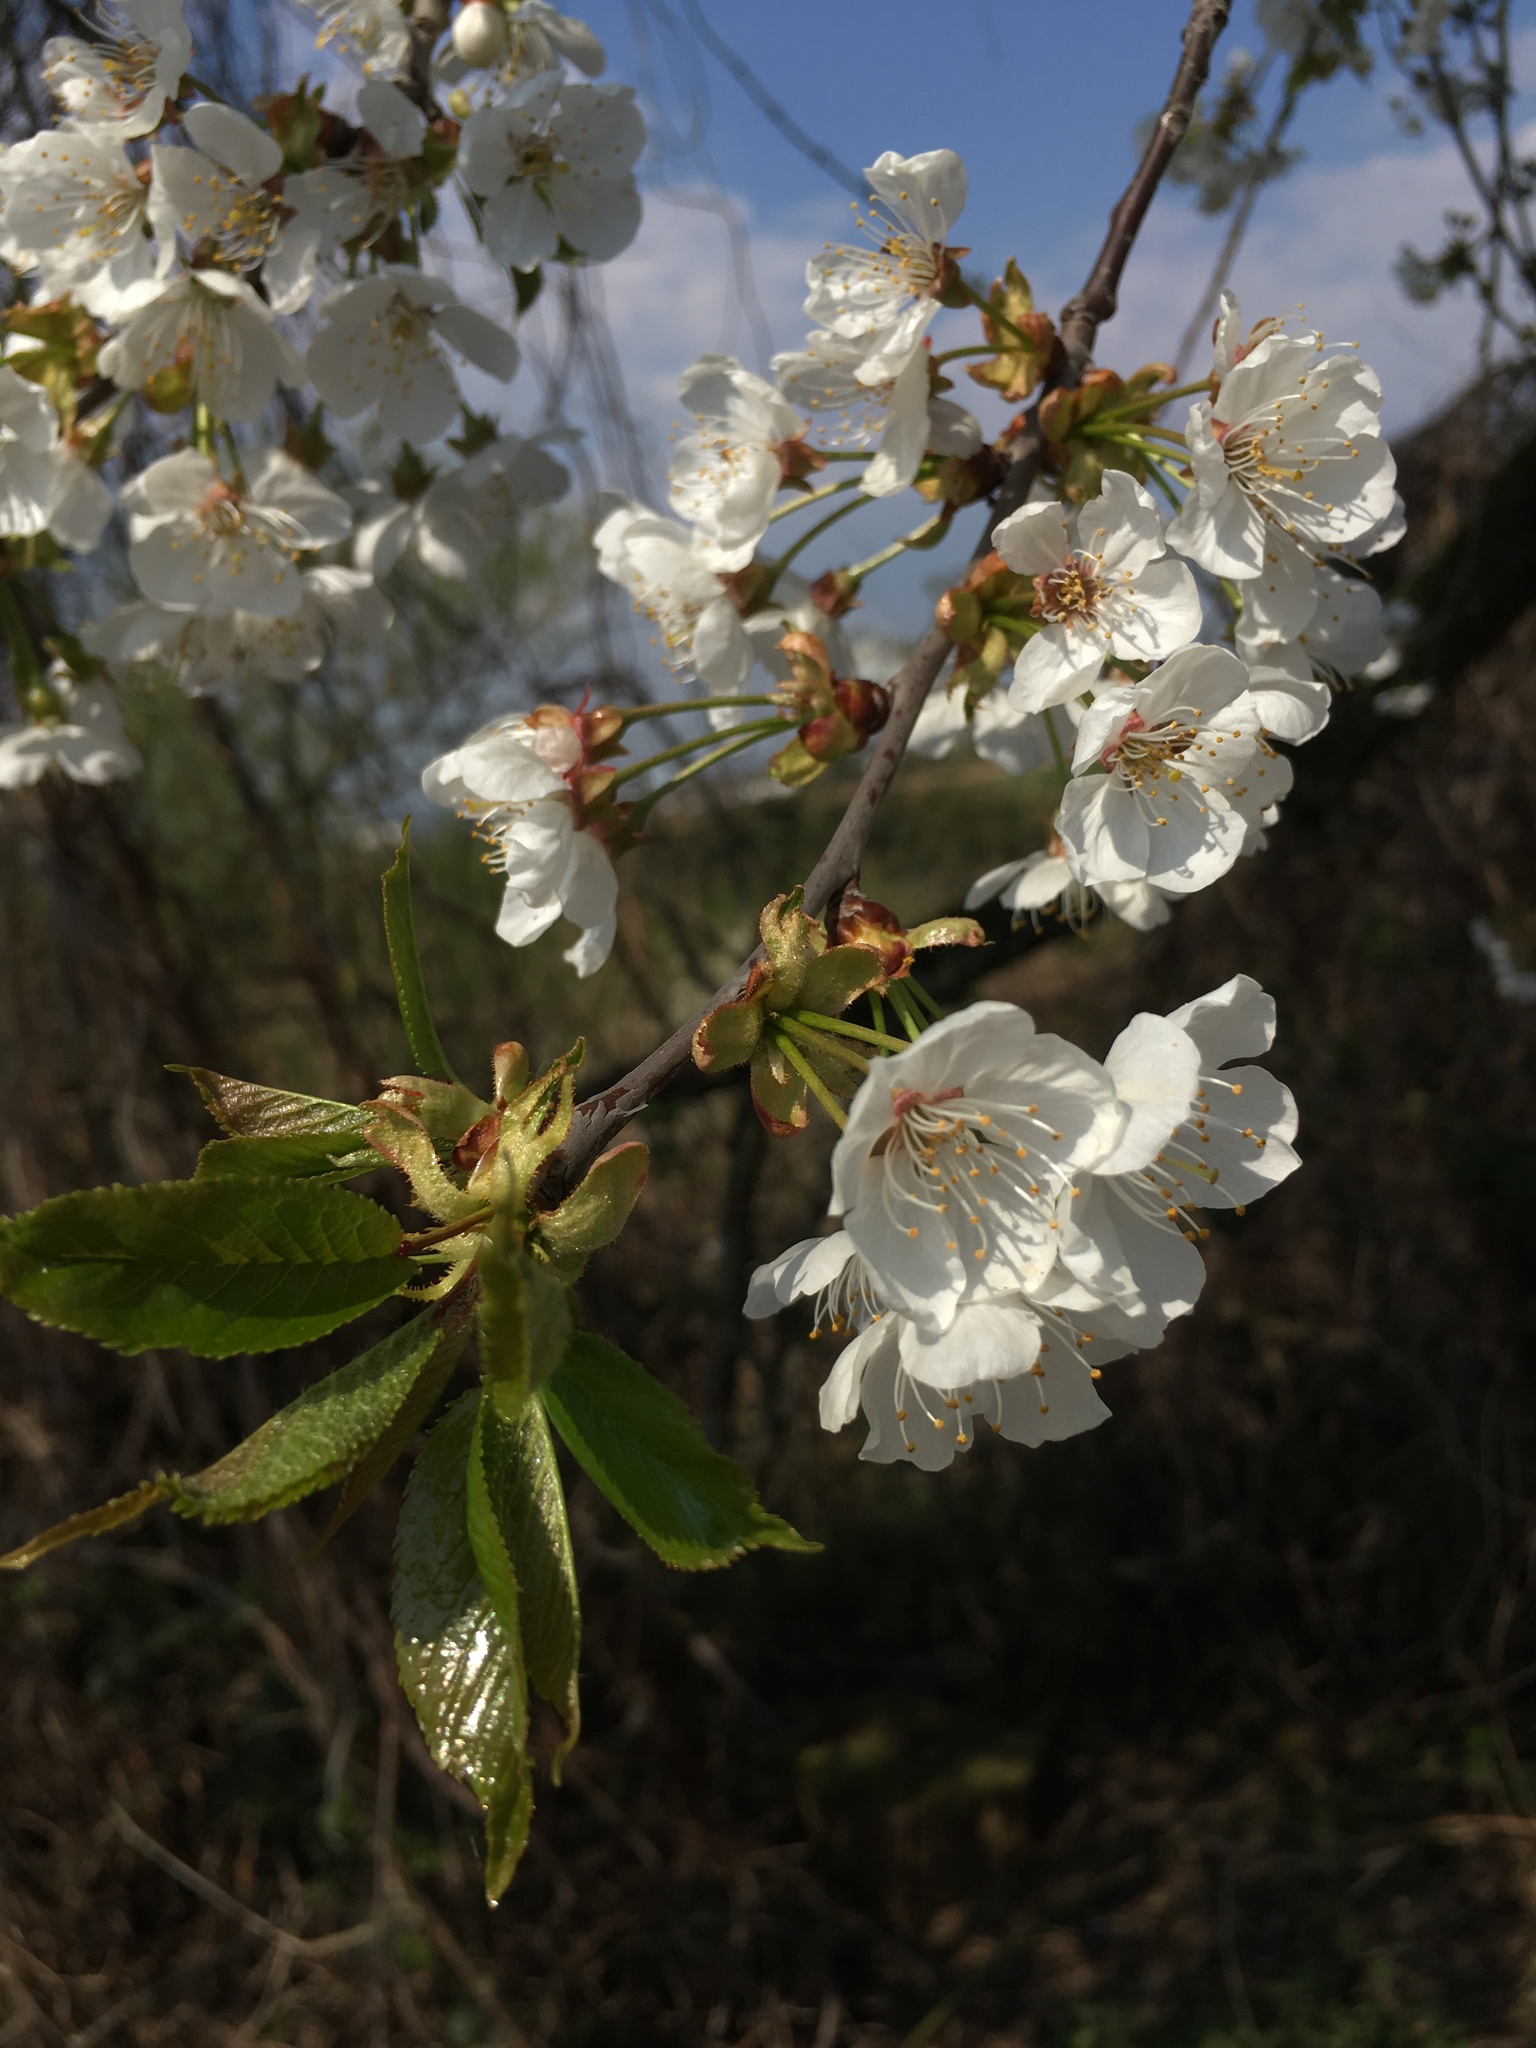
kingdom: Plantae
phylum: Tracheophyta
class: Magnoliopsida
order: Rosales
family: Rosaceae
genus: Prunus
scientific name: Prunus avium
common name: Sweet cherry
